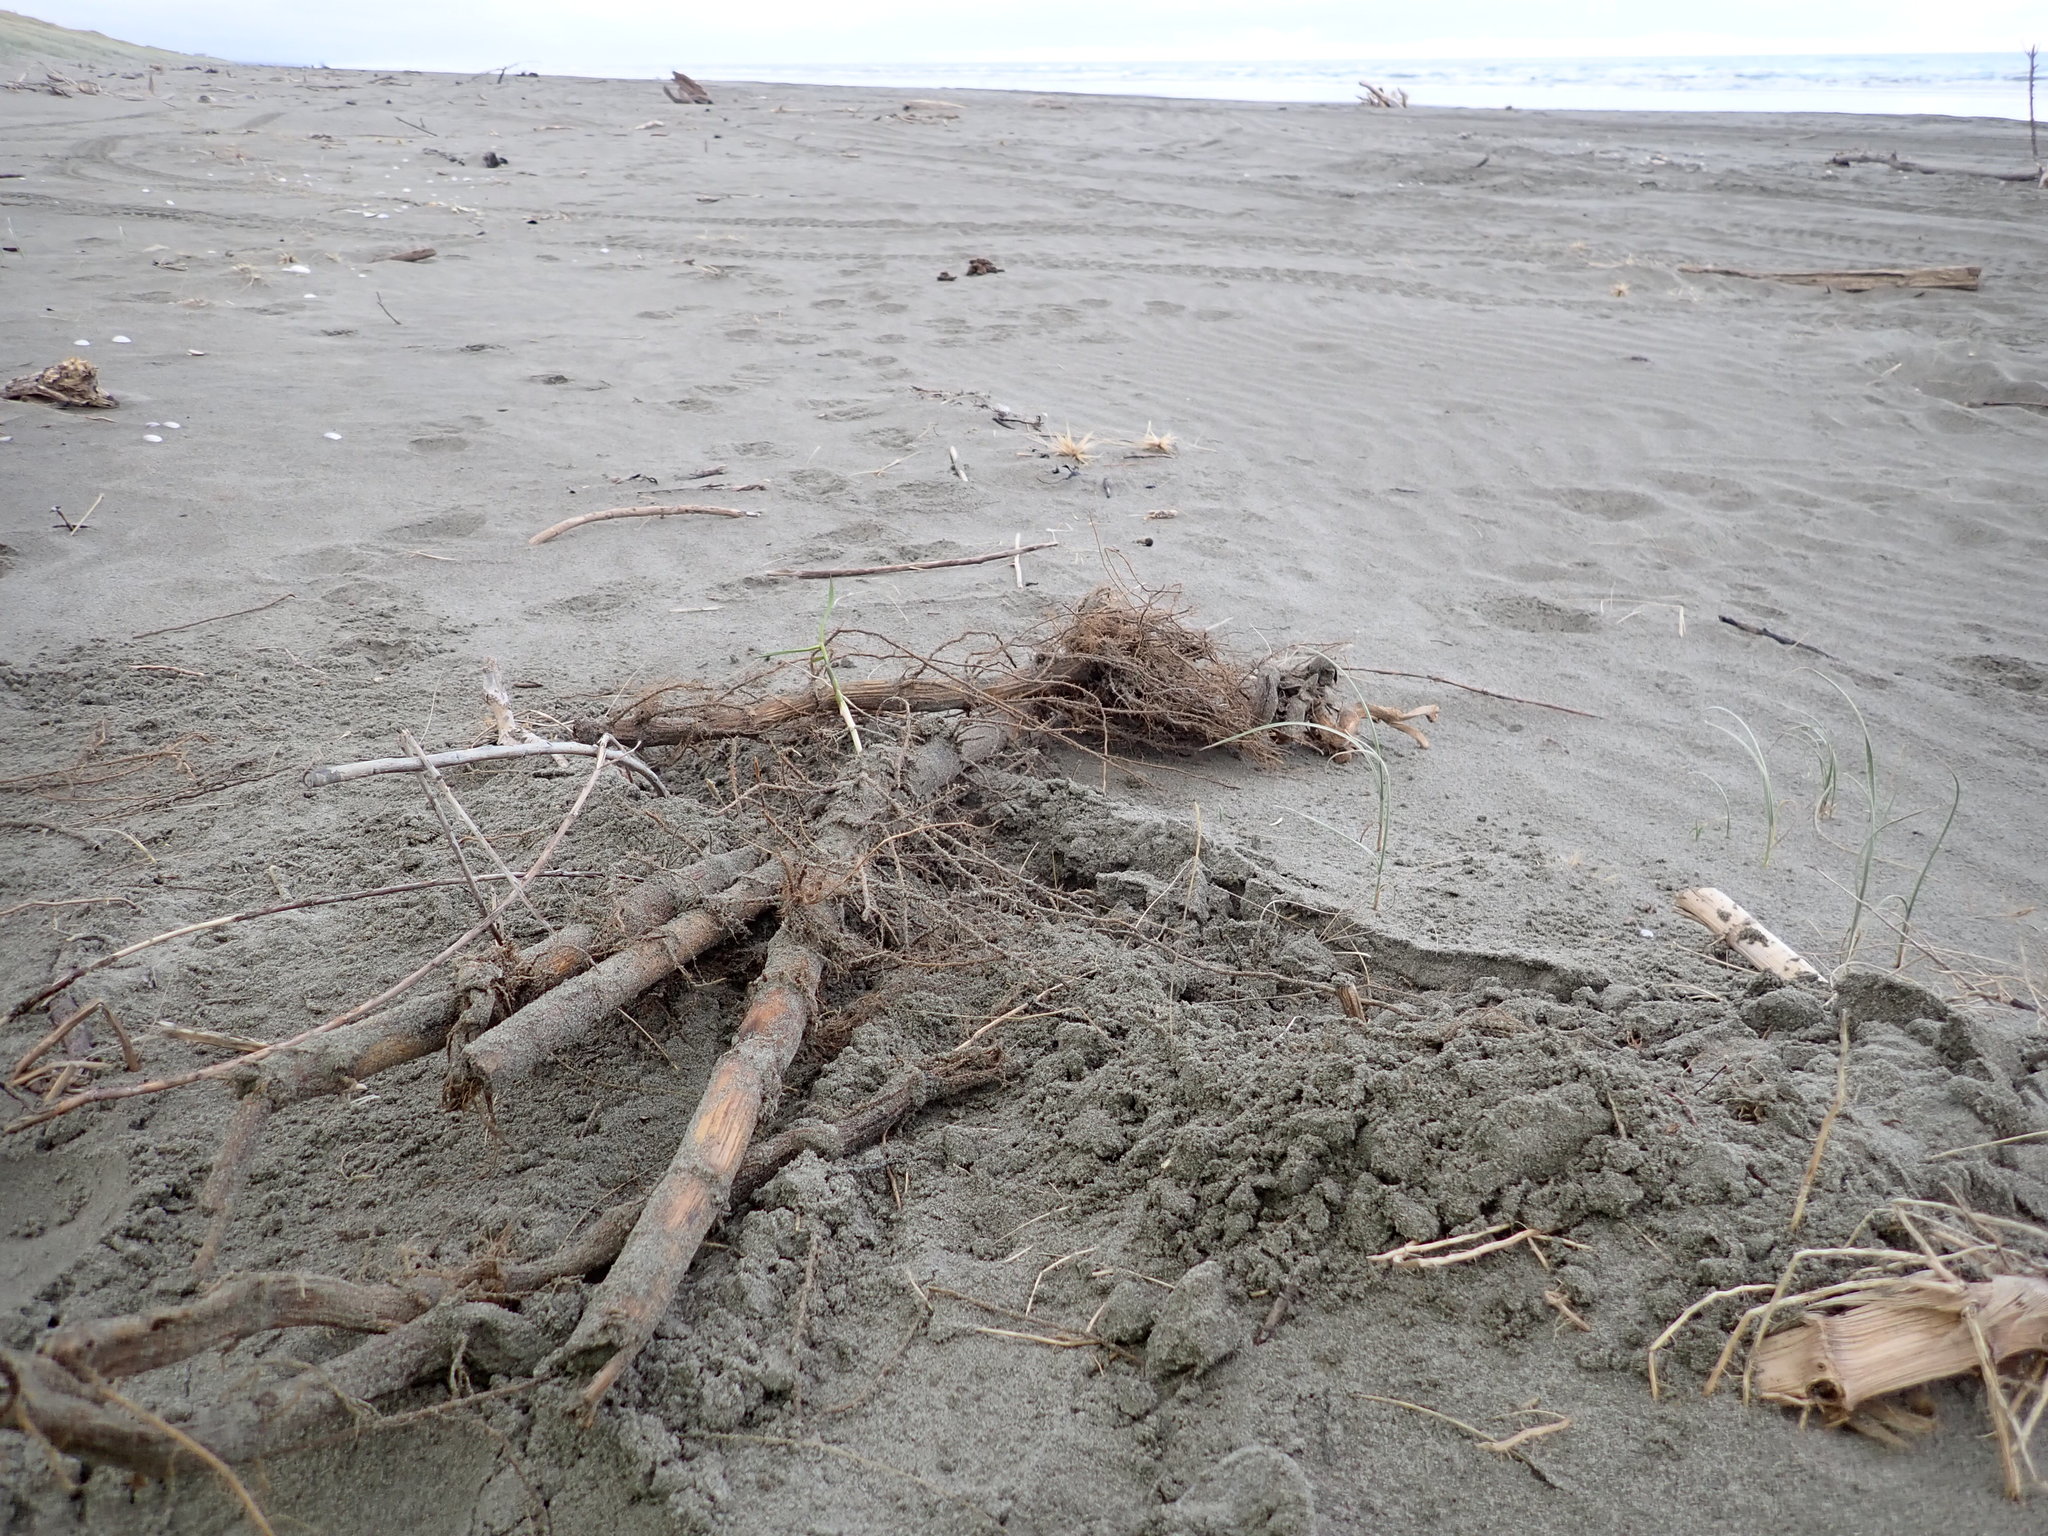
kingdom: Plantae
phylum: Tracheophyta
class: Liliopsida
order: Poales
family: Poaceae
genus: Phragmites
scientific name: Phragmites karka
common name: Tropical reed
